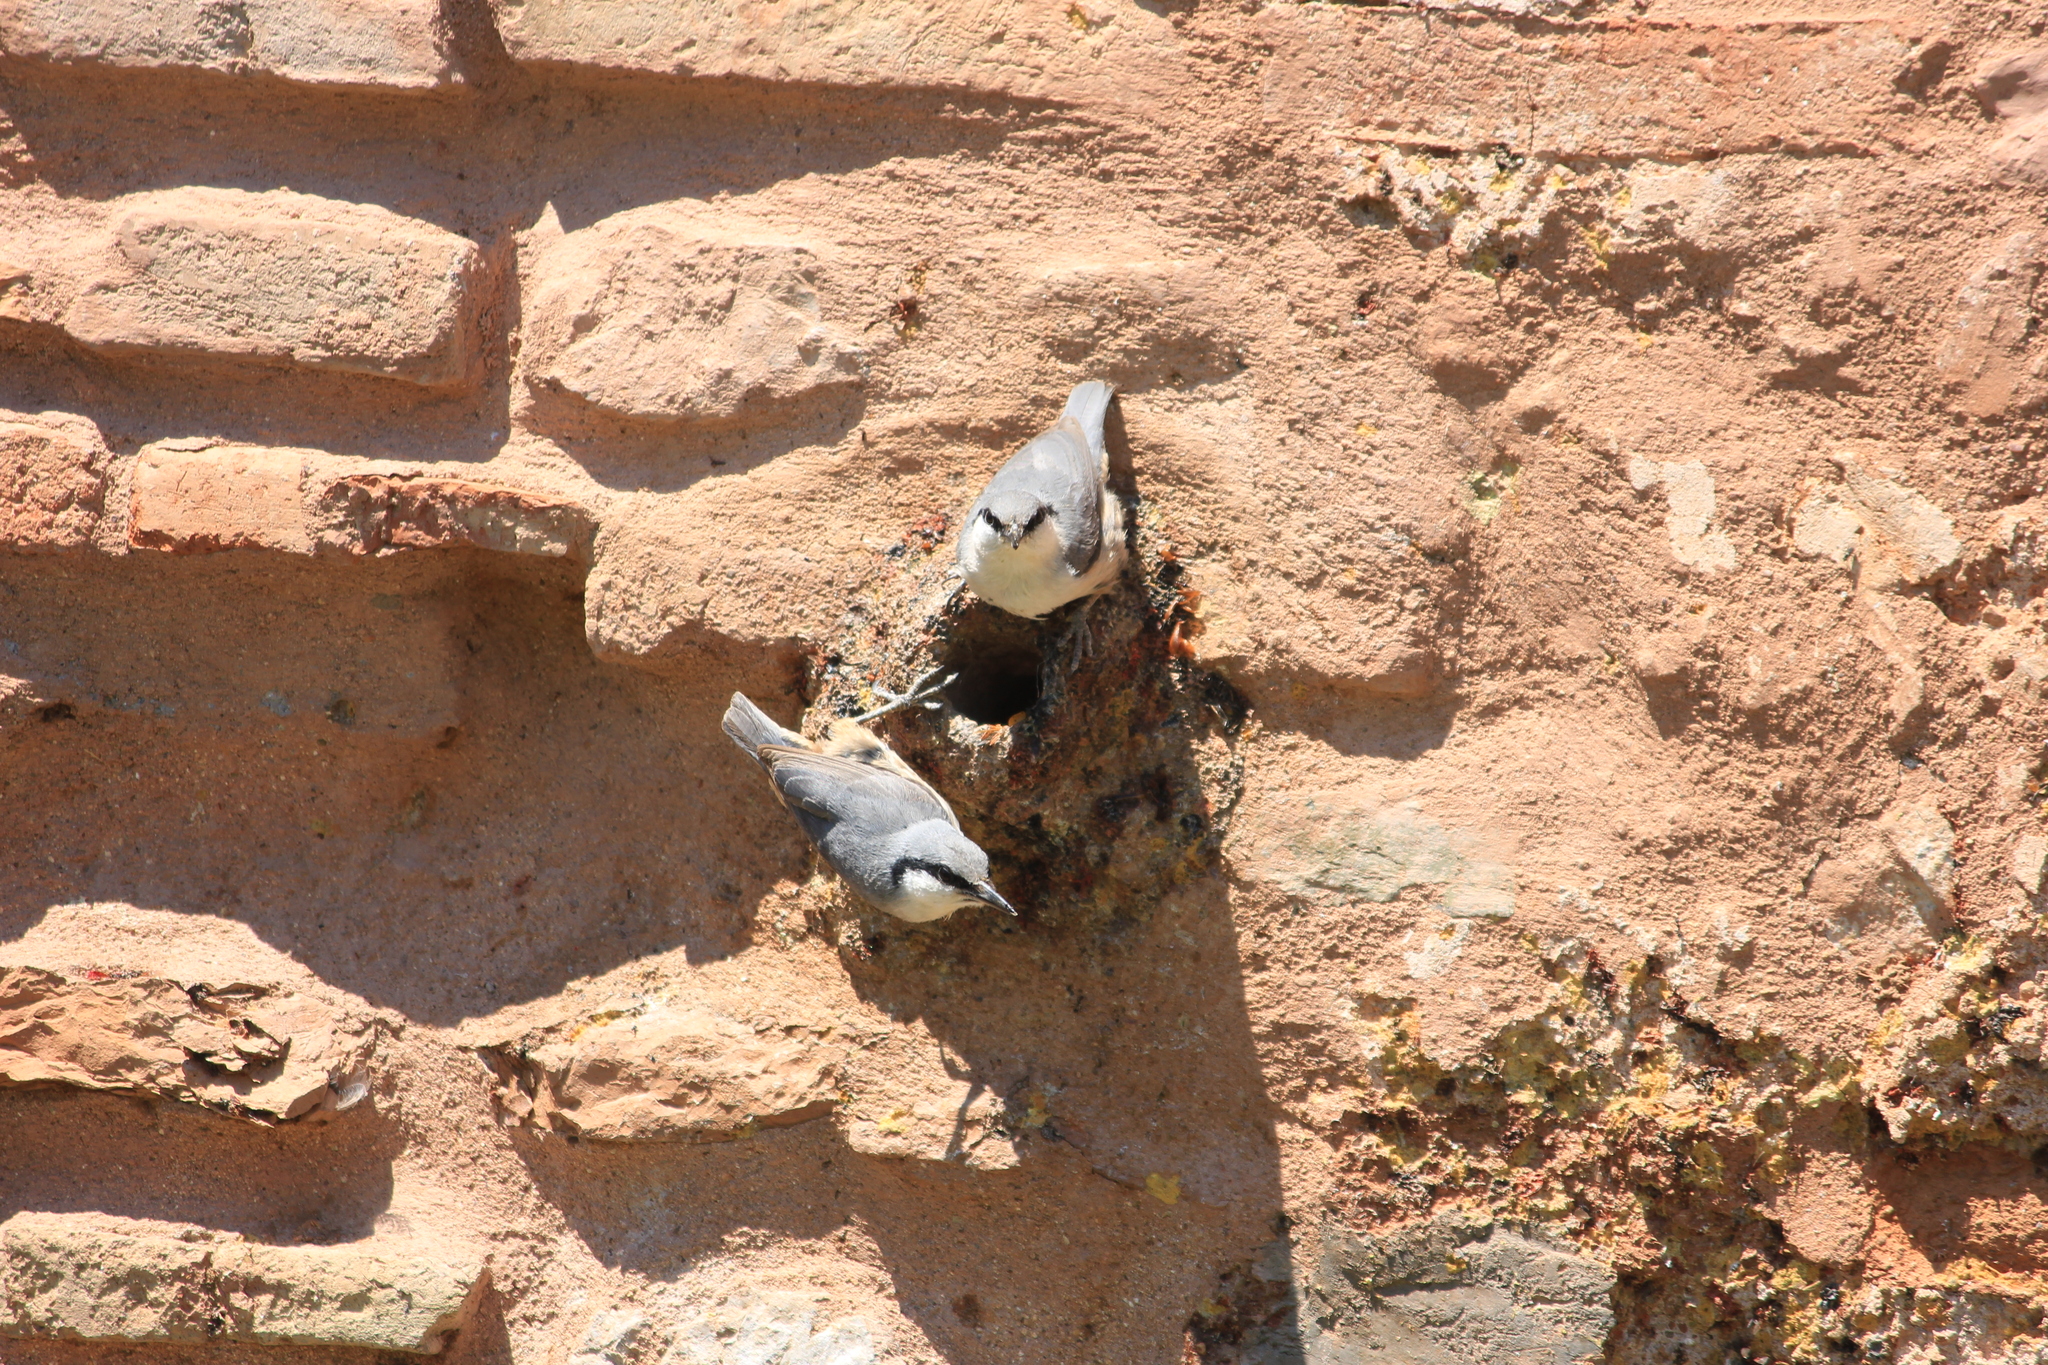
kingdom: Animalia
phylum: Chordata
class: Aves
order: Passeriformes
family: Sittidae
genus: Sitta
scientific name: Sitta neumayer
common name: Western rock nuthatch
